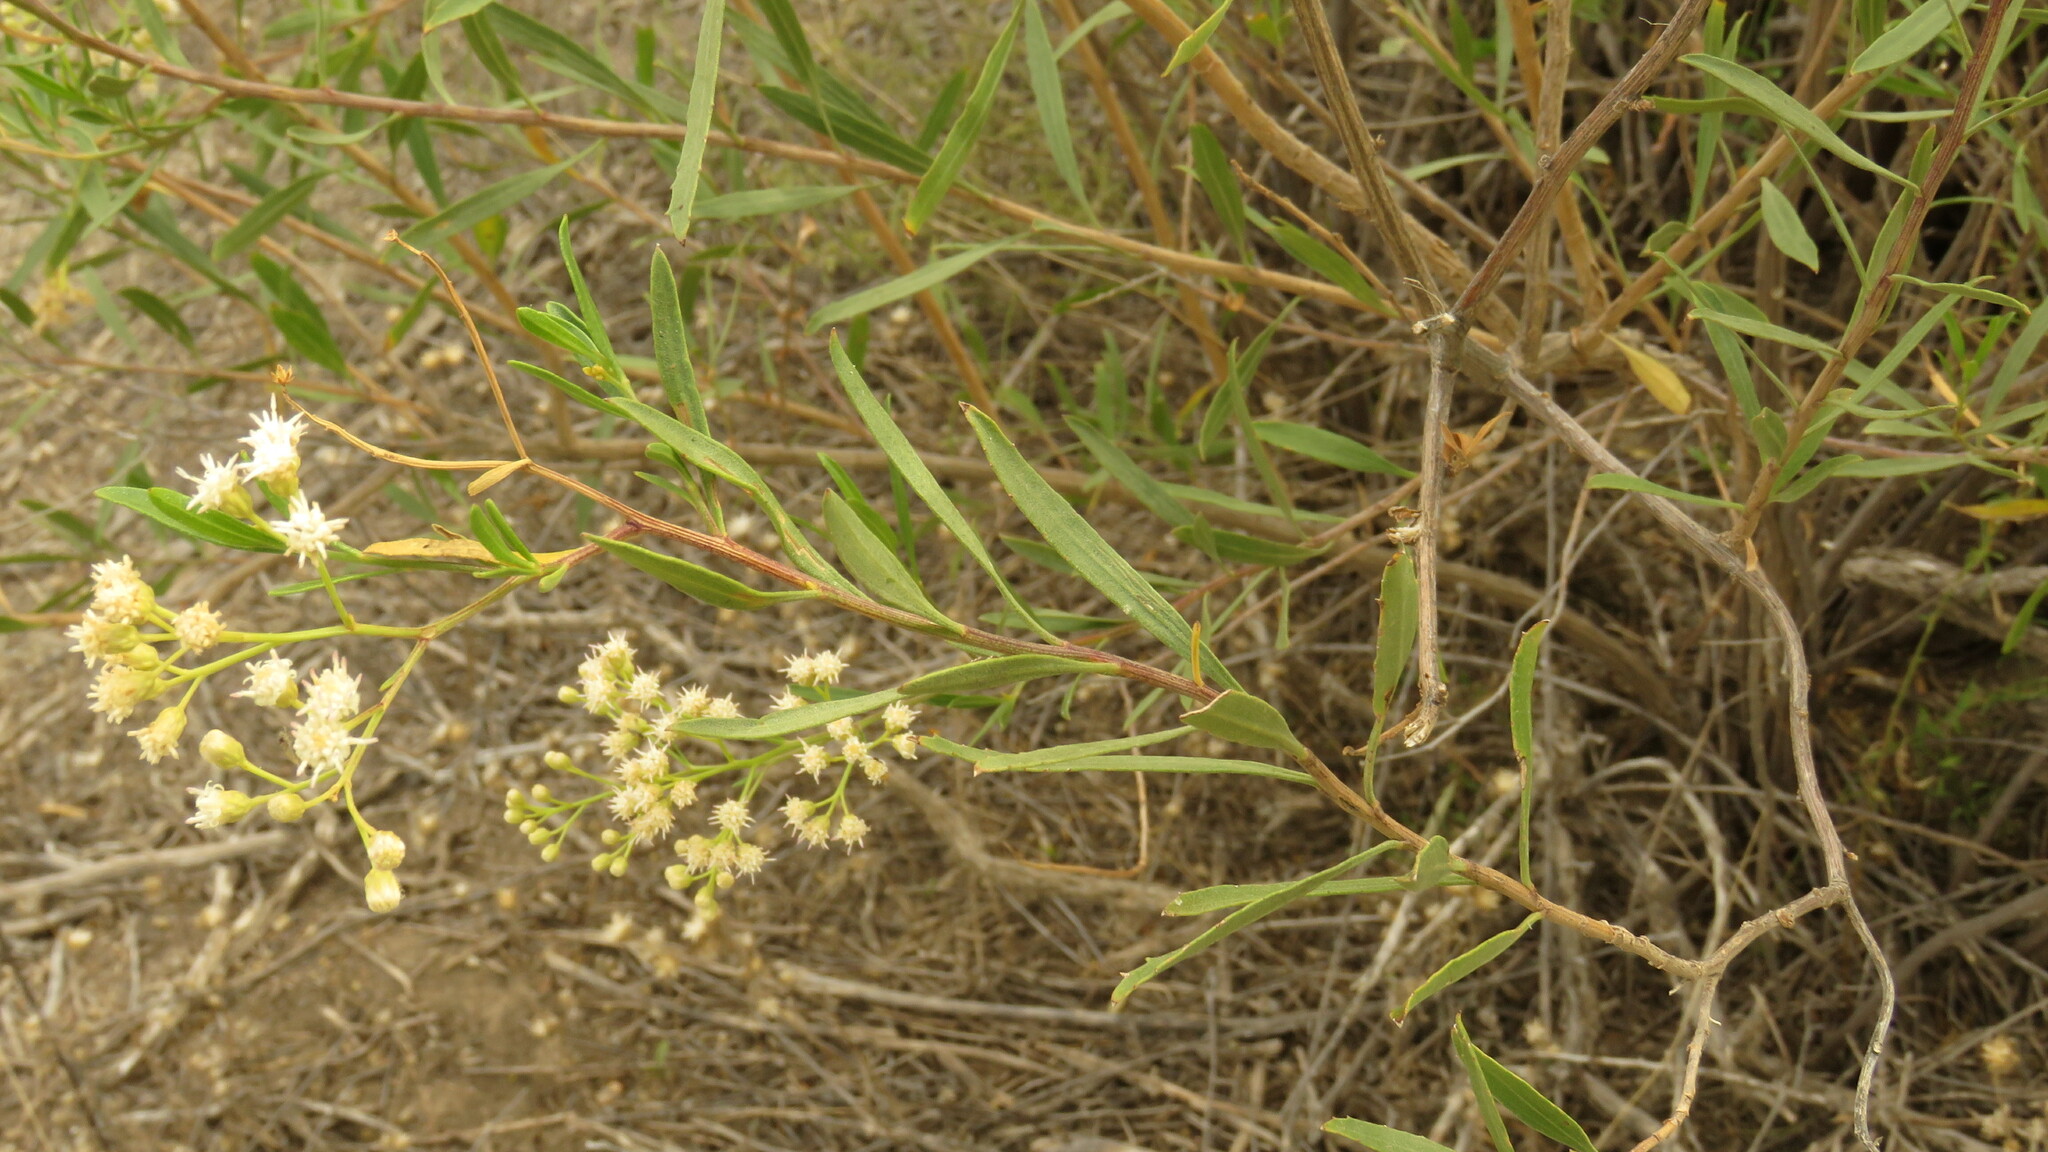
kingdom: Plantae
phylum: Tracheophyta
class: Magnoliopsida
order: Asterales
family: Asteraceae
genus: Baccharis
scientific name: Baccharis salicifolia
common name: Sticky baccharis
